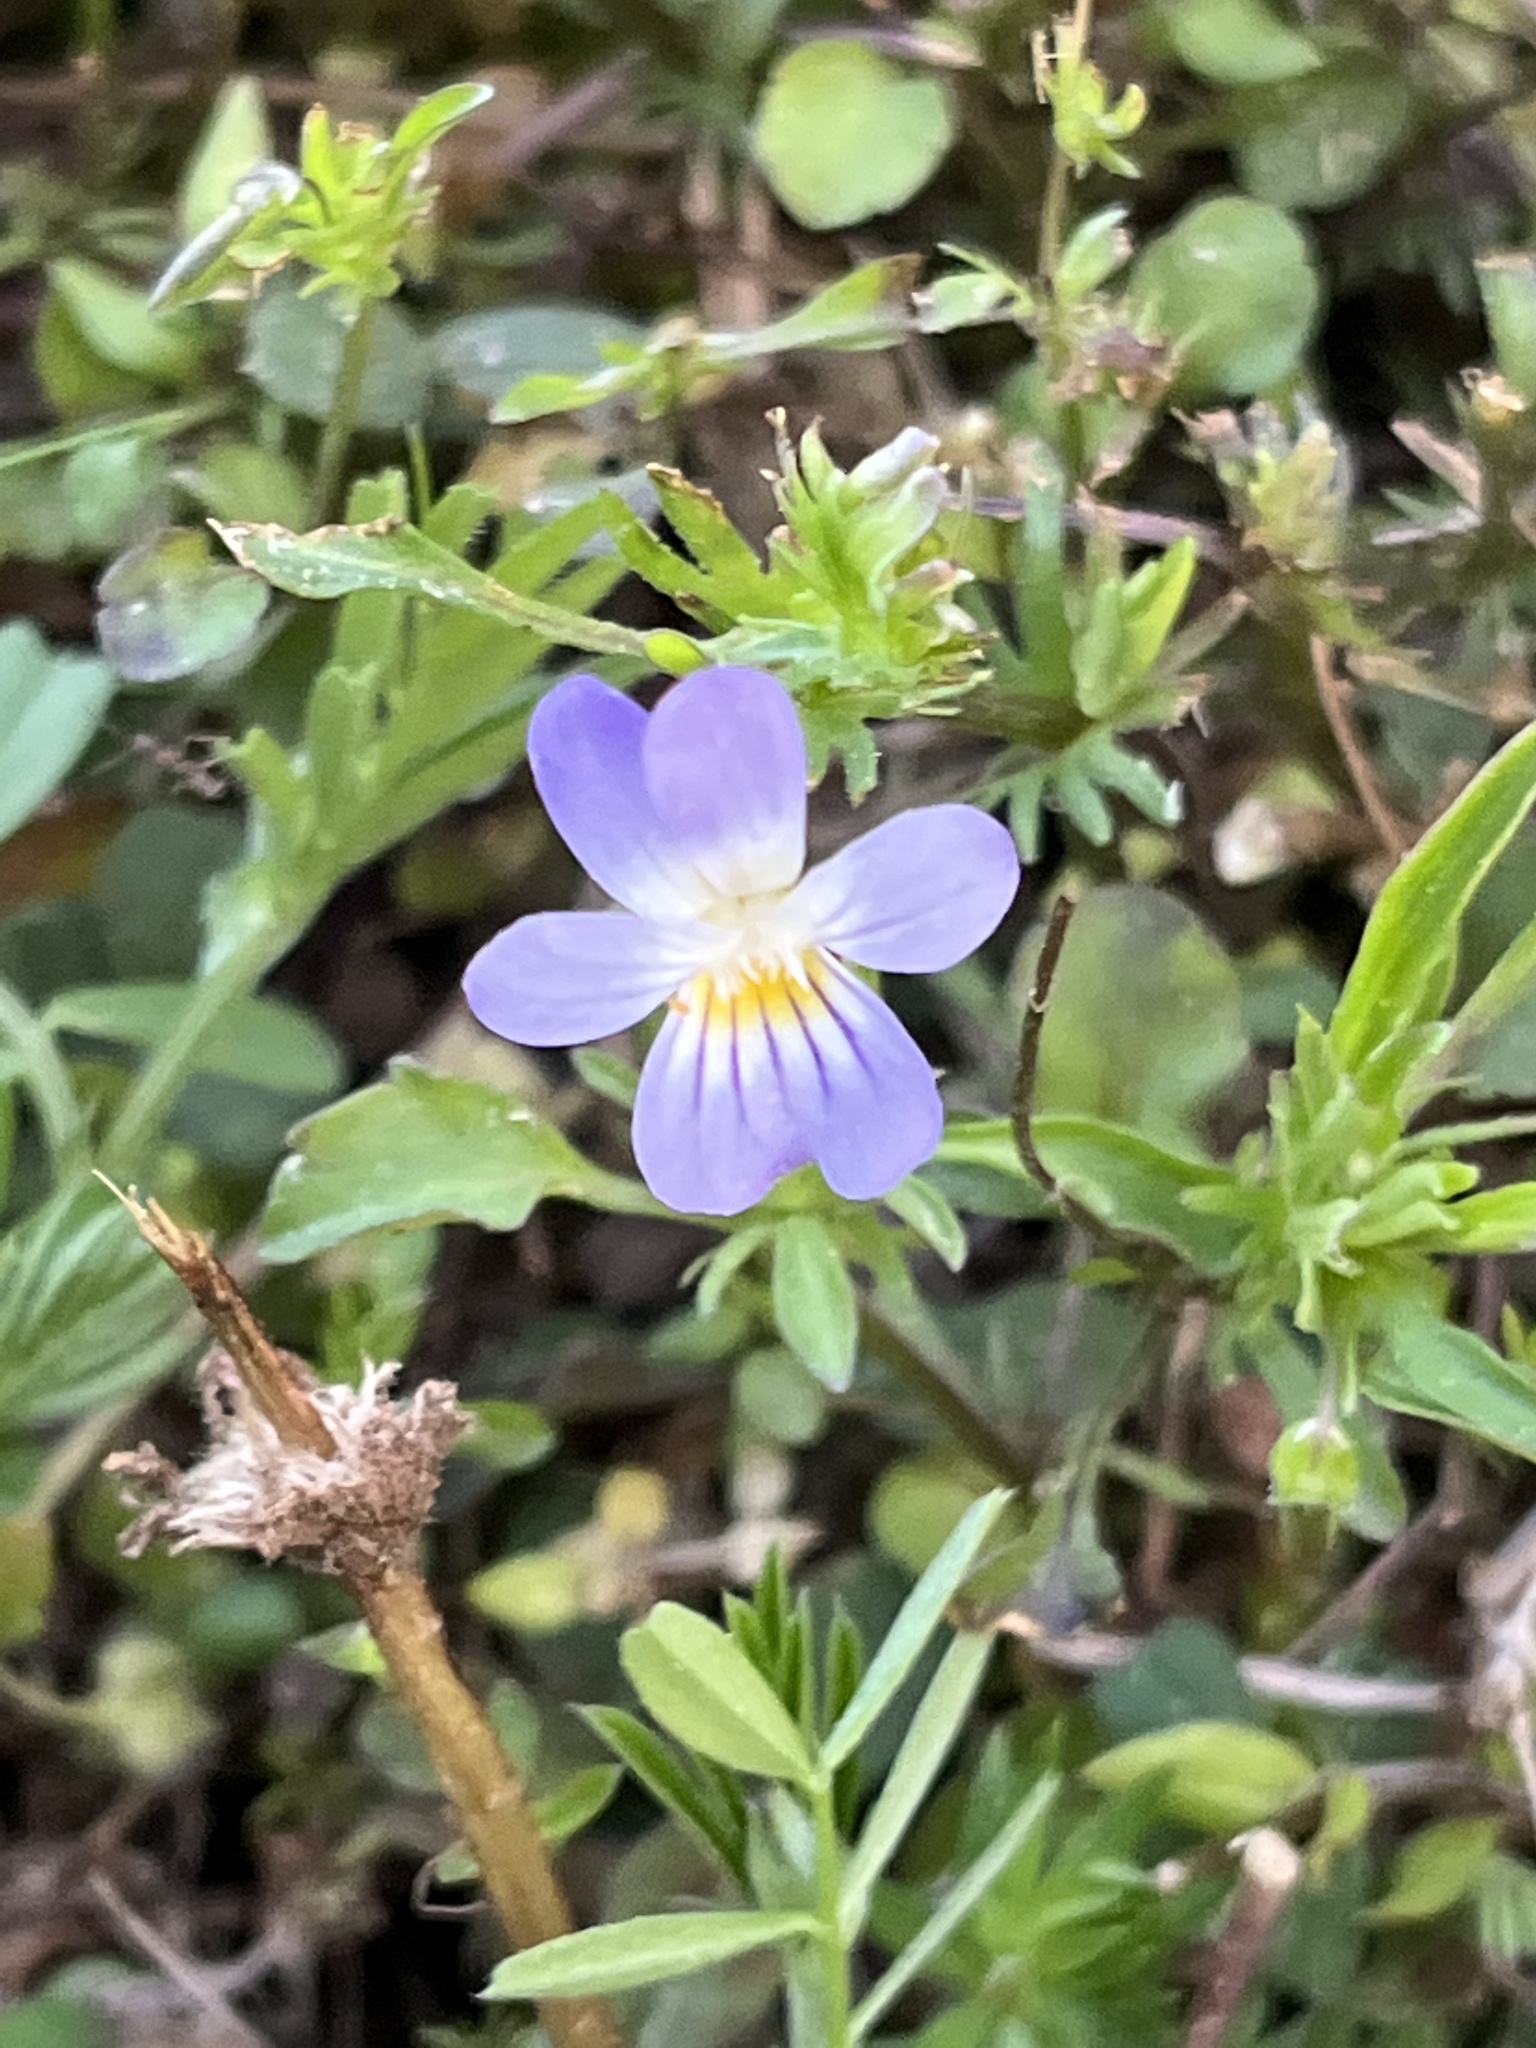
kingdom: Plantae
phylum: Tracheophyta
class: Magnoliopsida
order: Malpighiales
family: Violaceae
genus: Viola
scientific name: Viola rafinesquei
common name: American field pansy
